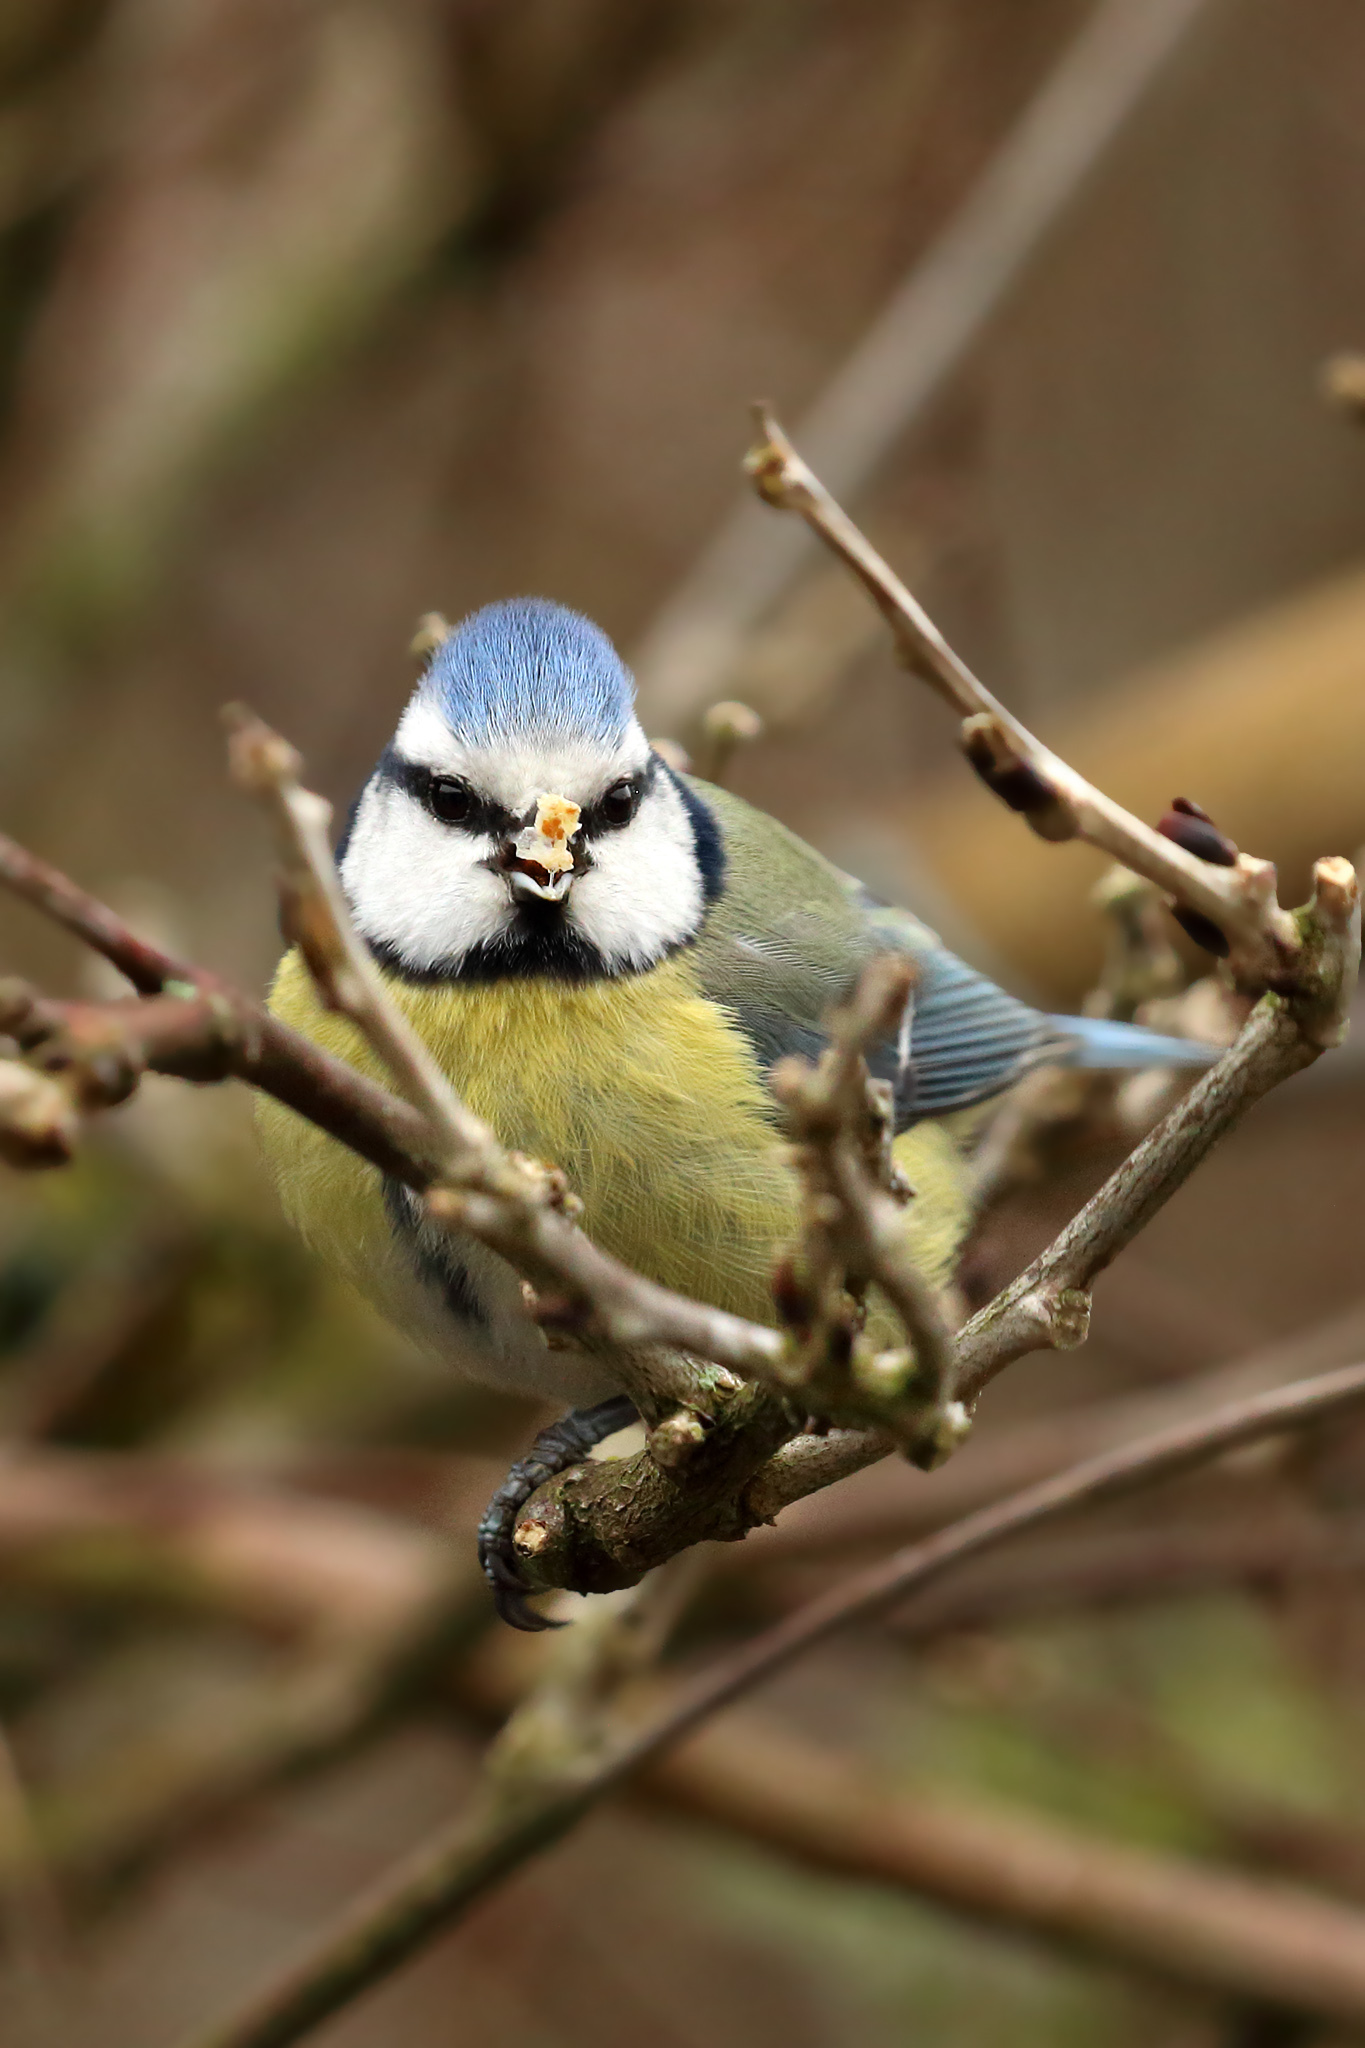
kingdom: Animalia
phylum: Chordata
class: Aves
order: Passeriformes
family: Paridae
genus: Cyanistes
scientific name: Cyanistes caeruleus
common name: Eurasian blue tit
